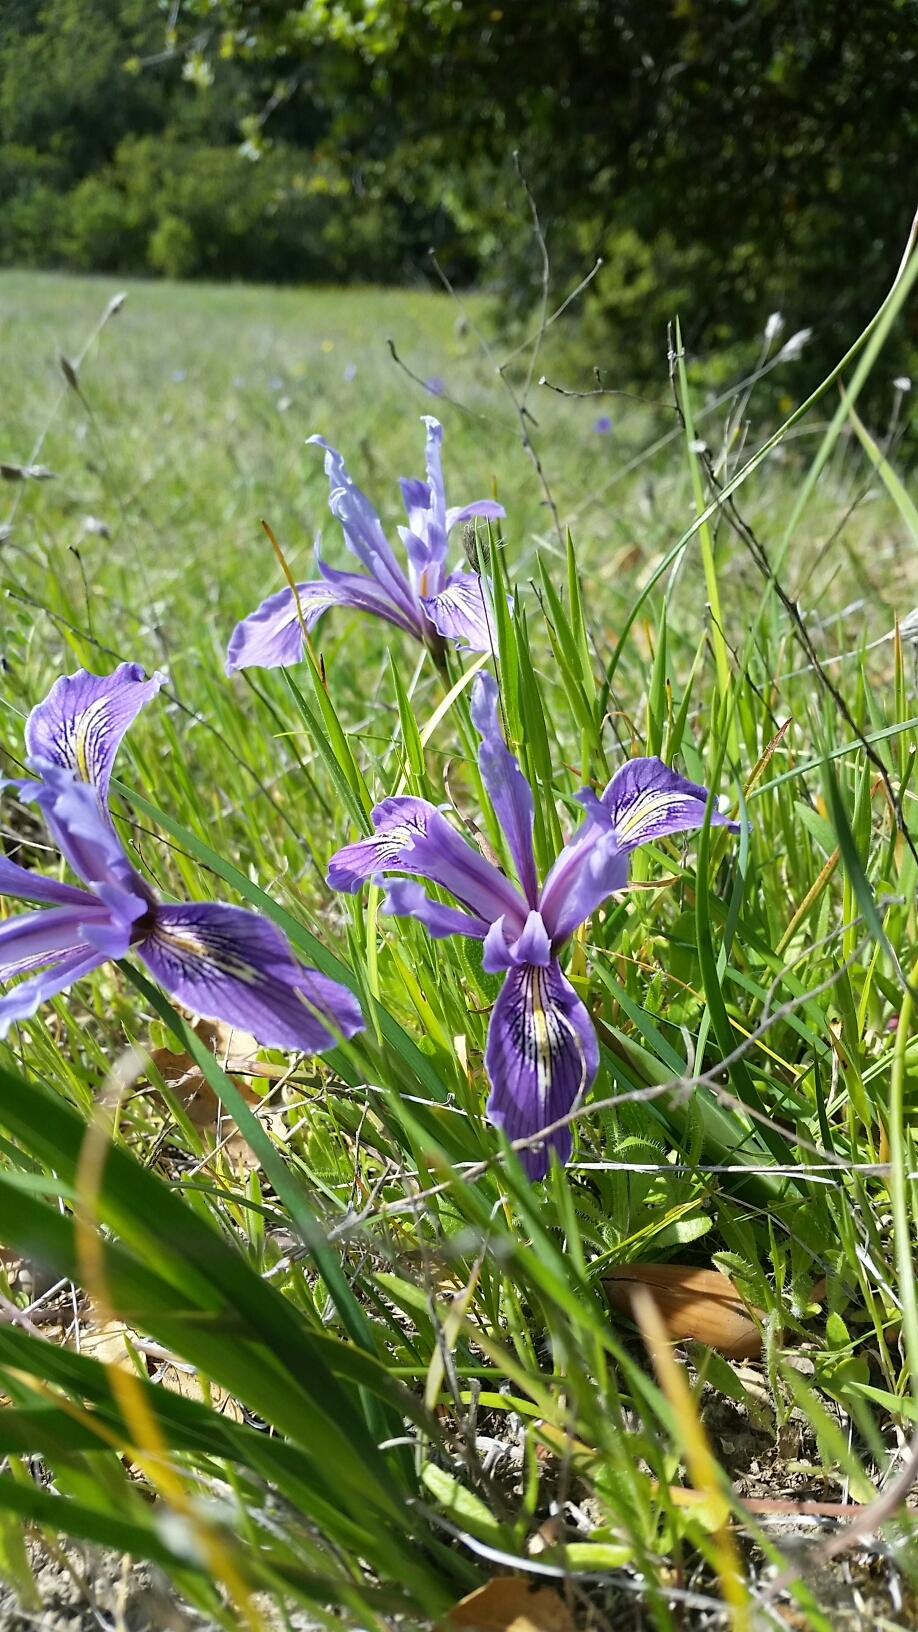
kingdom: Plantae
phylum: Tracheophyta
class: Liliopsida
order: Asparagales
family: Iridaceae
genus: Iris
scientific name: Iris macrosiphon
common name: Ground iris
